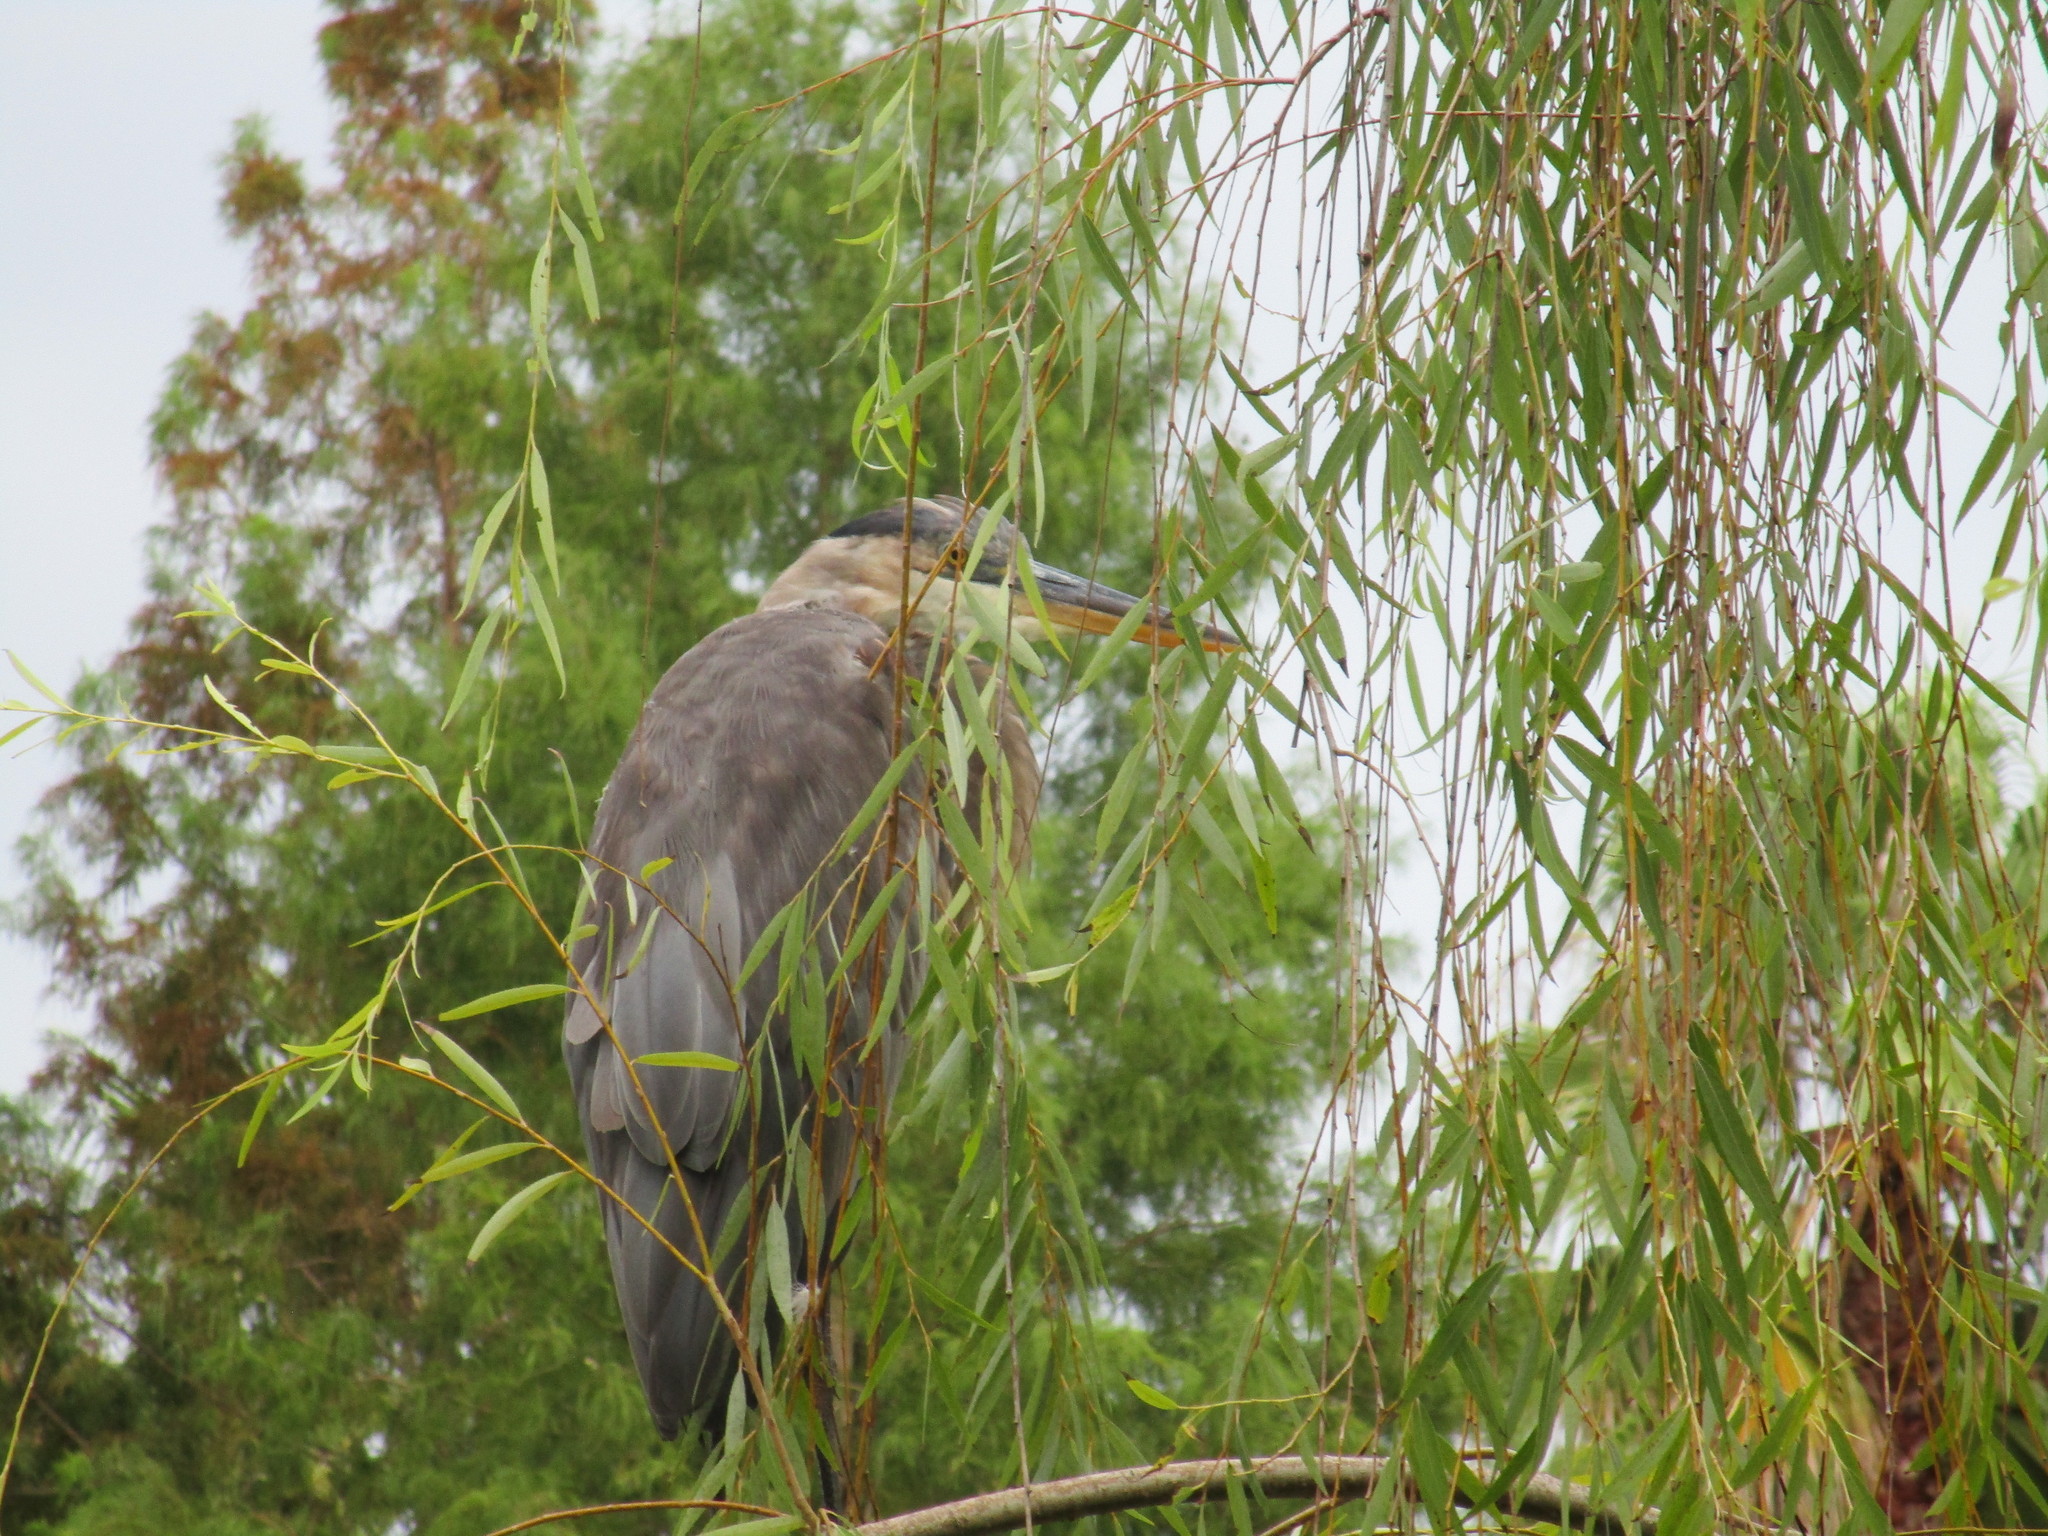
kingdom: Animalia
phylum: Chordata
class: Aves
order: Pelecaniformes
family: Ardeidae
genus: Ardea
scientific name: Ardea herodias
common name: Great blue heron
